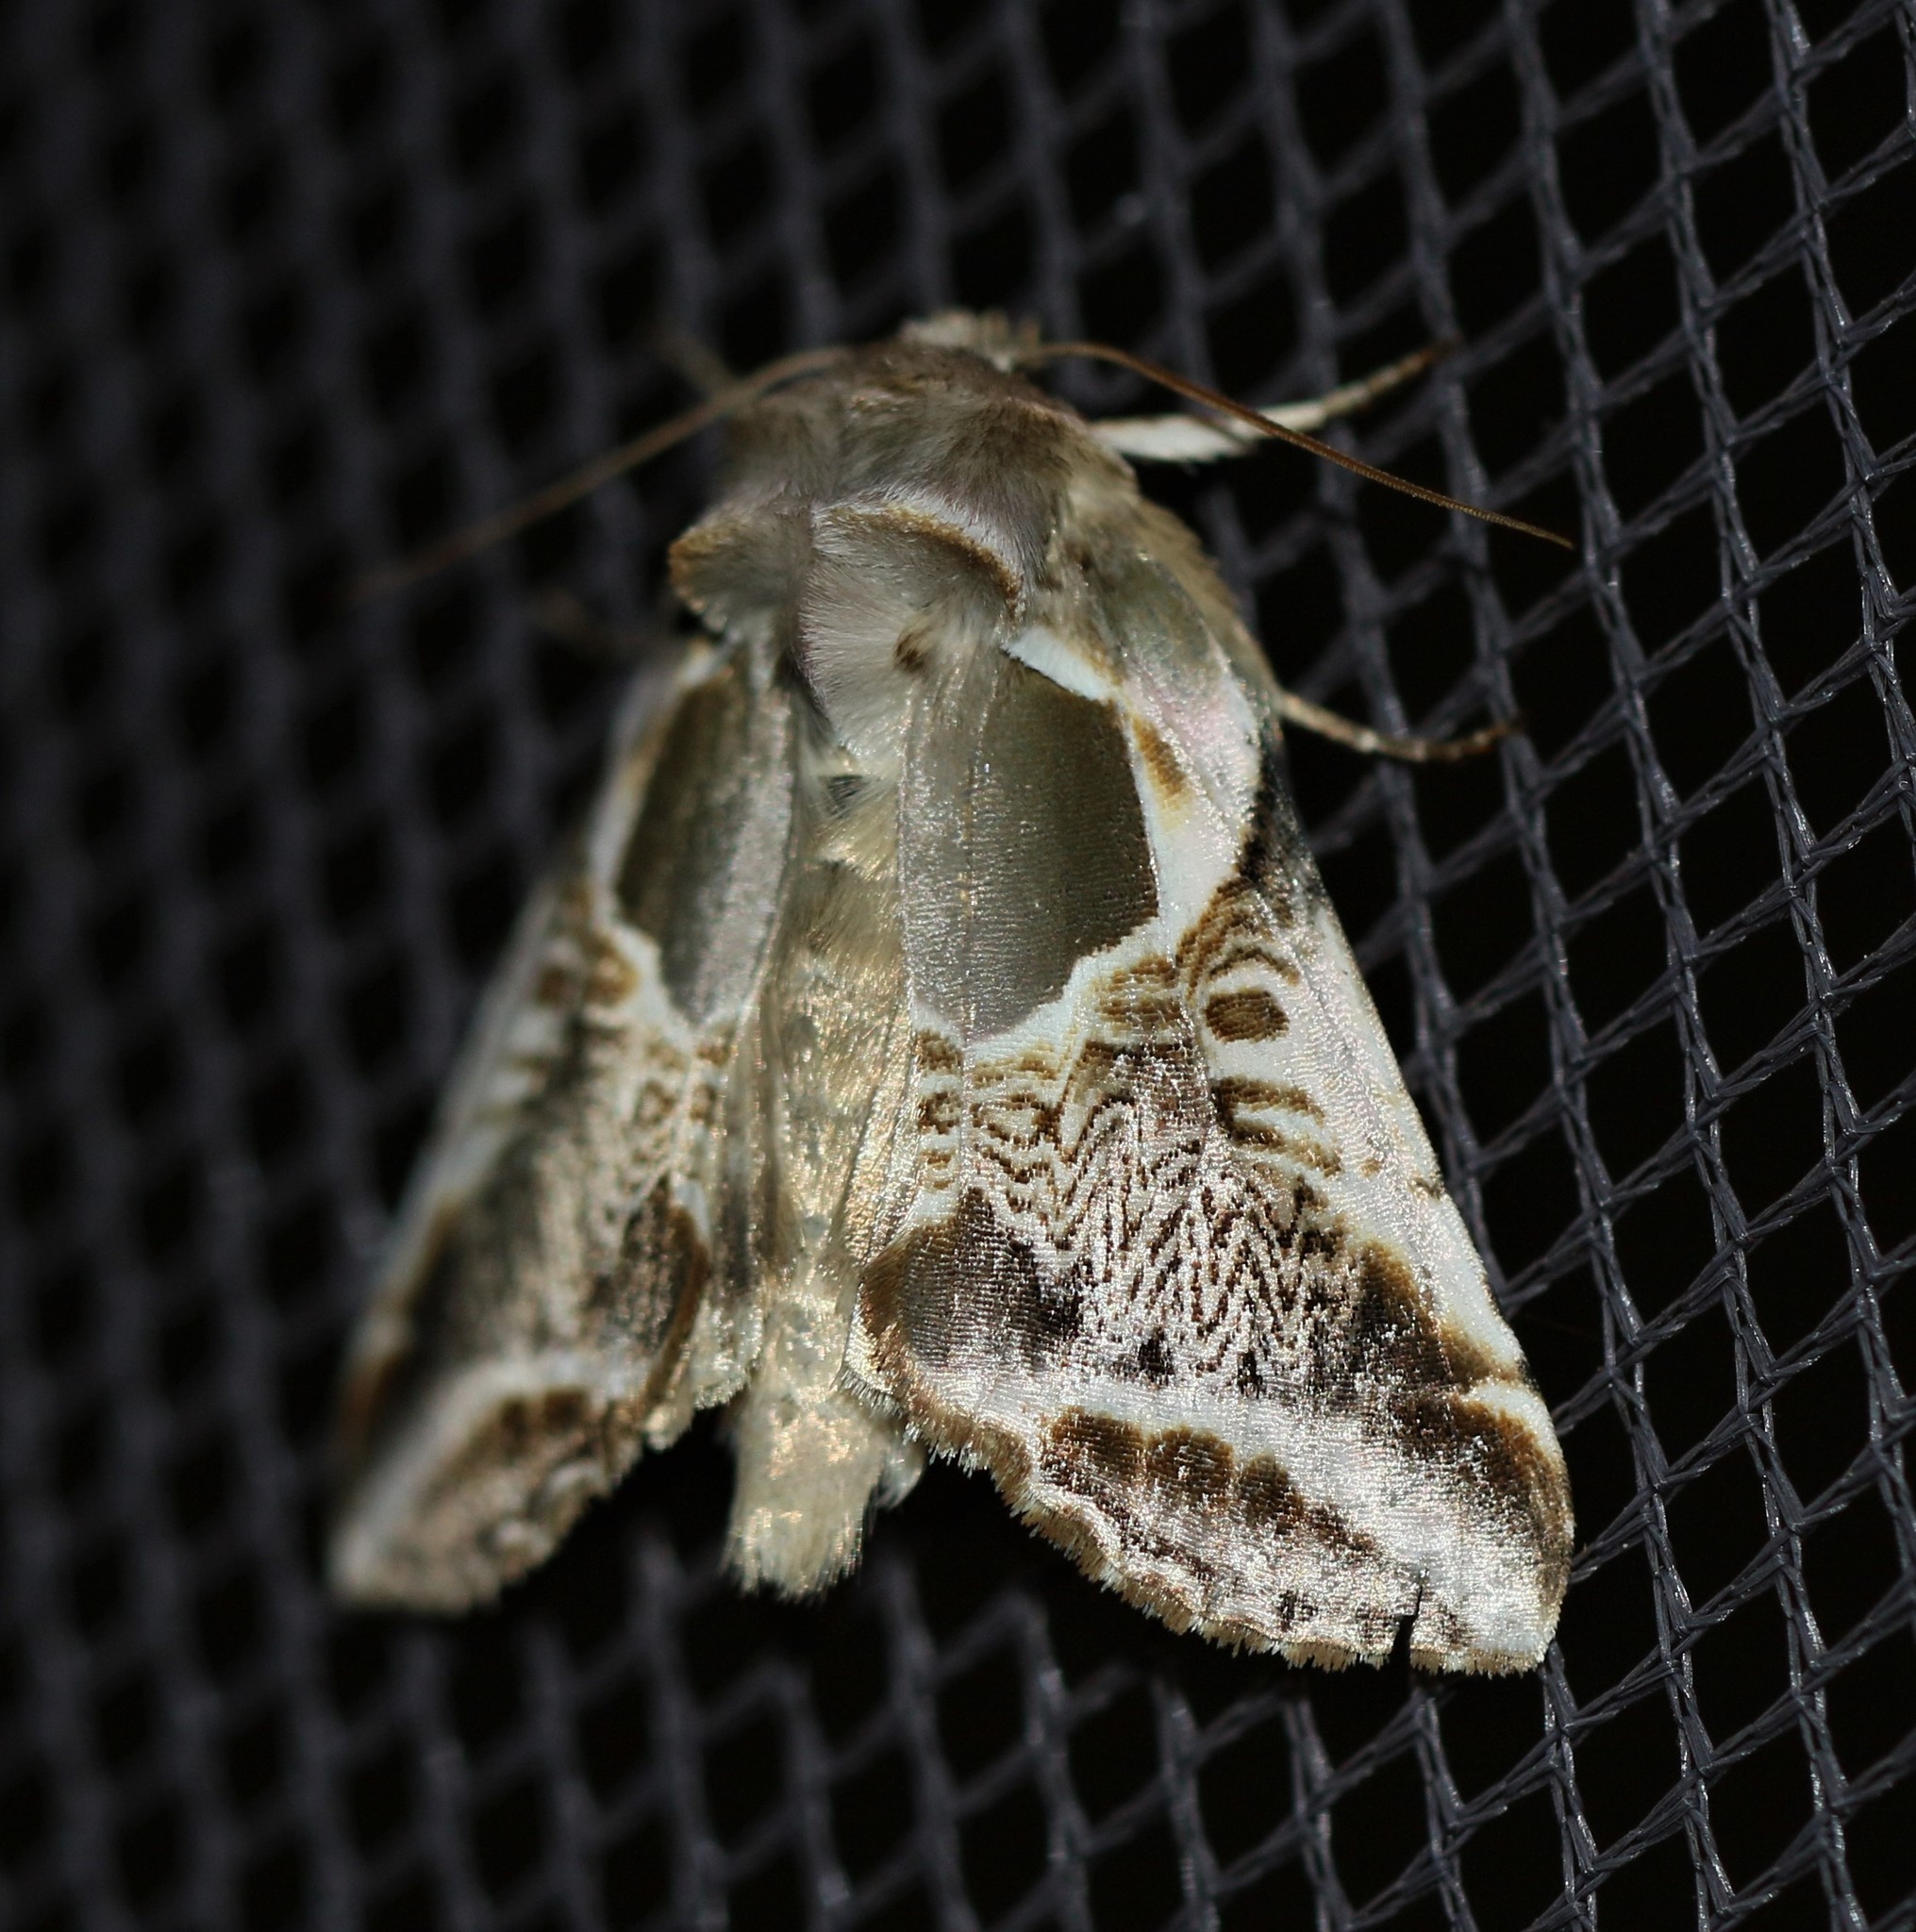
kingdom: Animalia
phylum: Arthropoda
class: Insecta
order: Lepidoptera
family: Drepanidae
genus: Habrosyne
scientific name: Habrosyne scripta
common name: Lettered habrosyne moth
